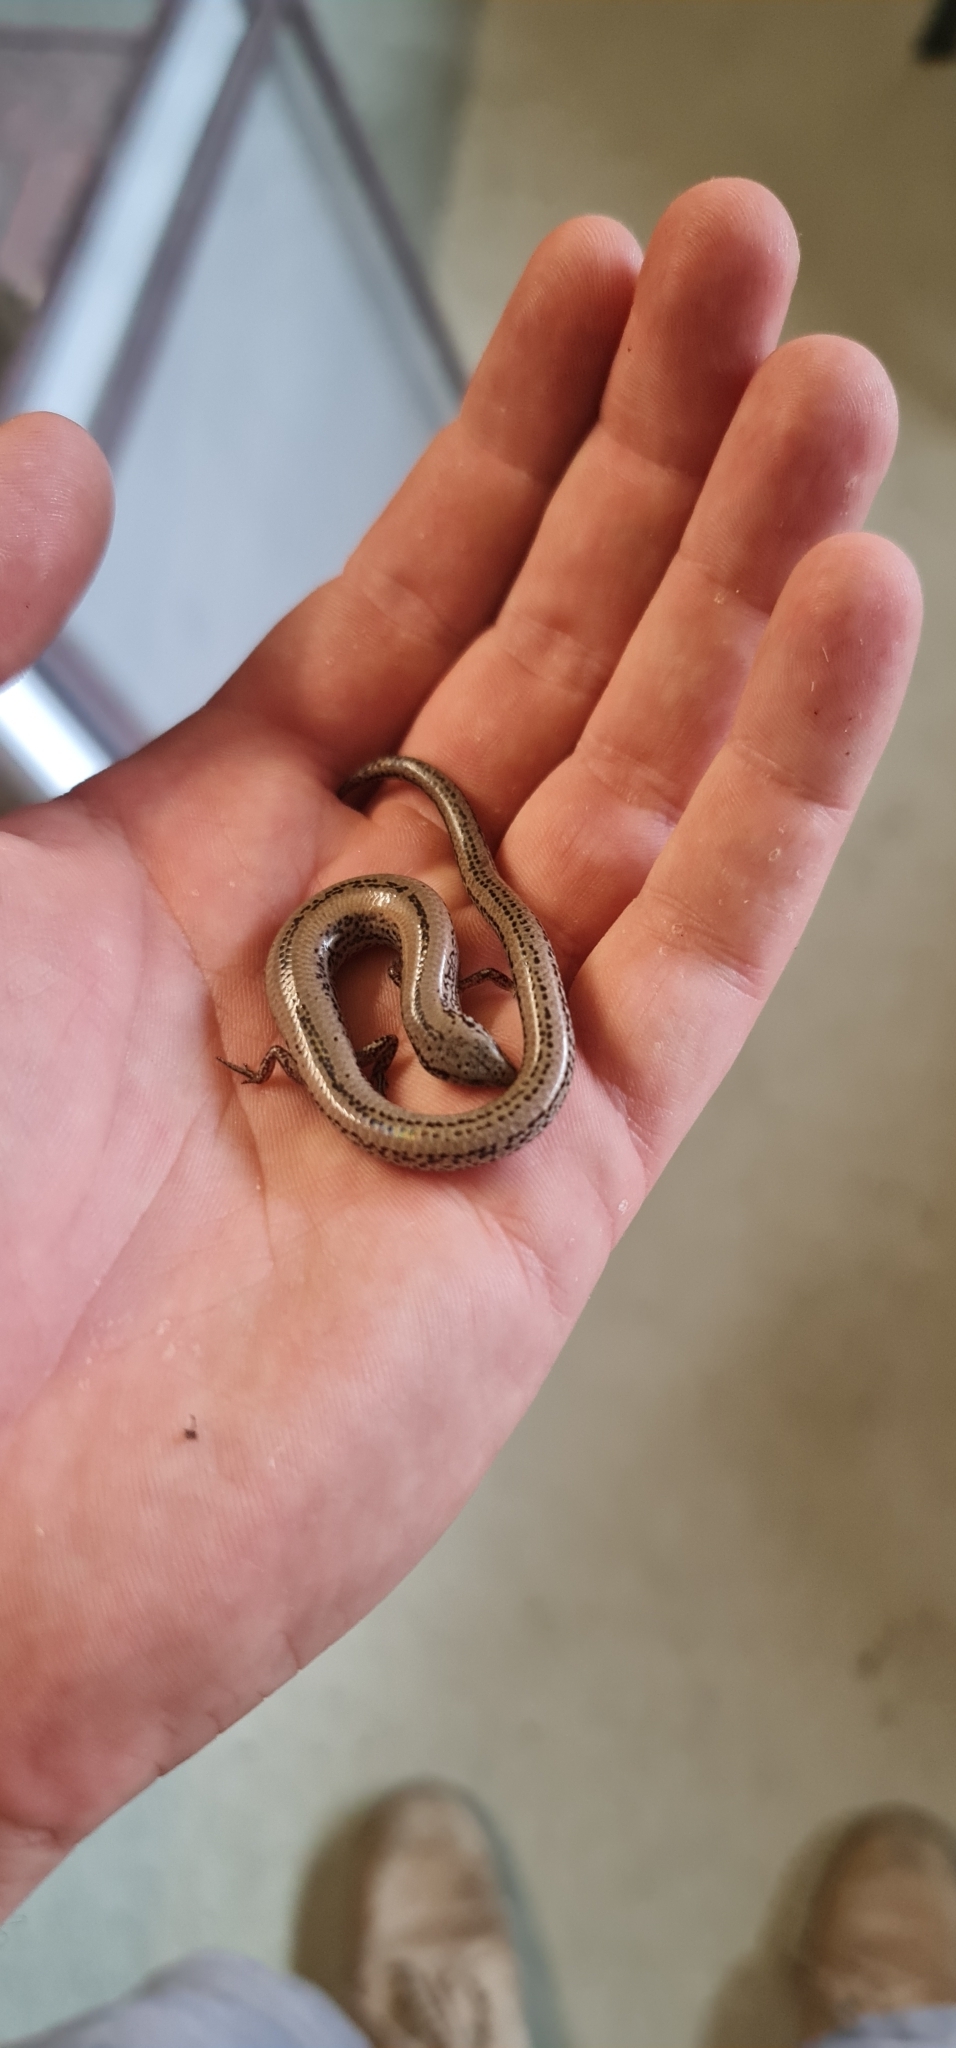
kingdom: Animalia
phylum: Chordata
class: Squamata
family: Scincidae
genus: Hemiergis
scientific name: Hemiergis peronii
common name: Lowlands earless skink
